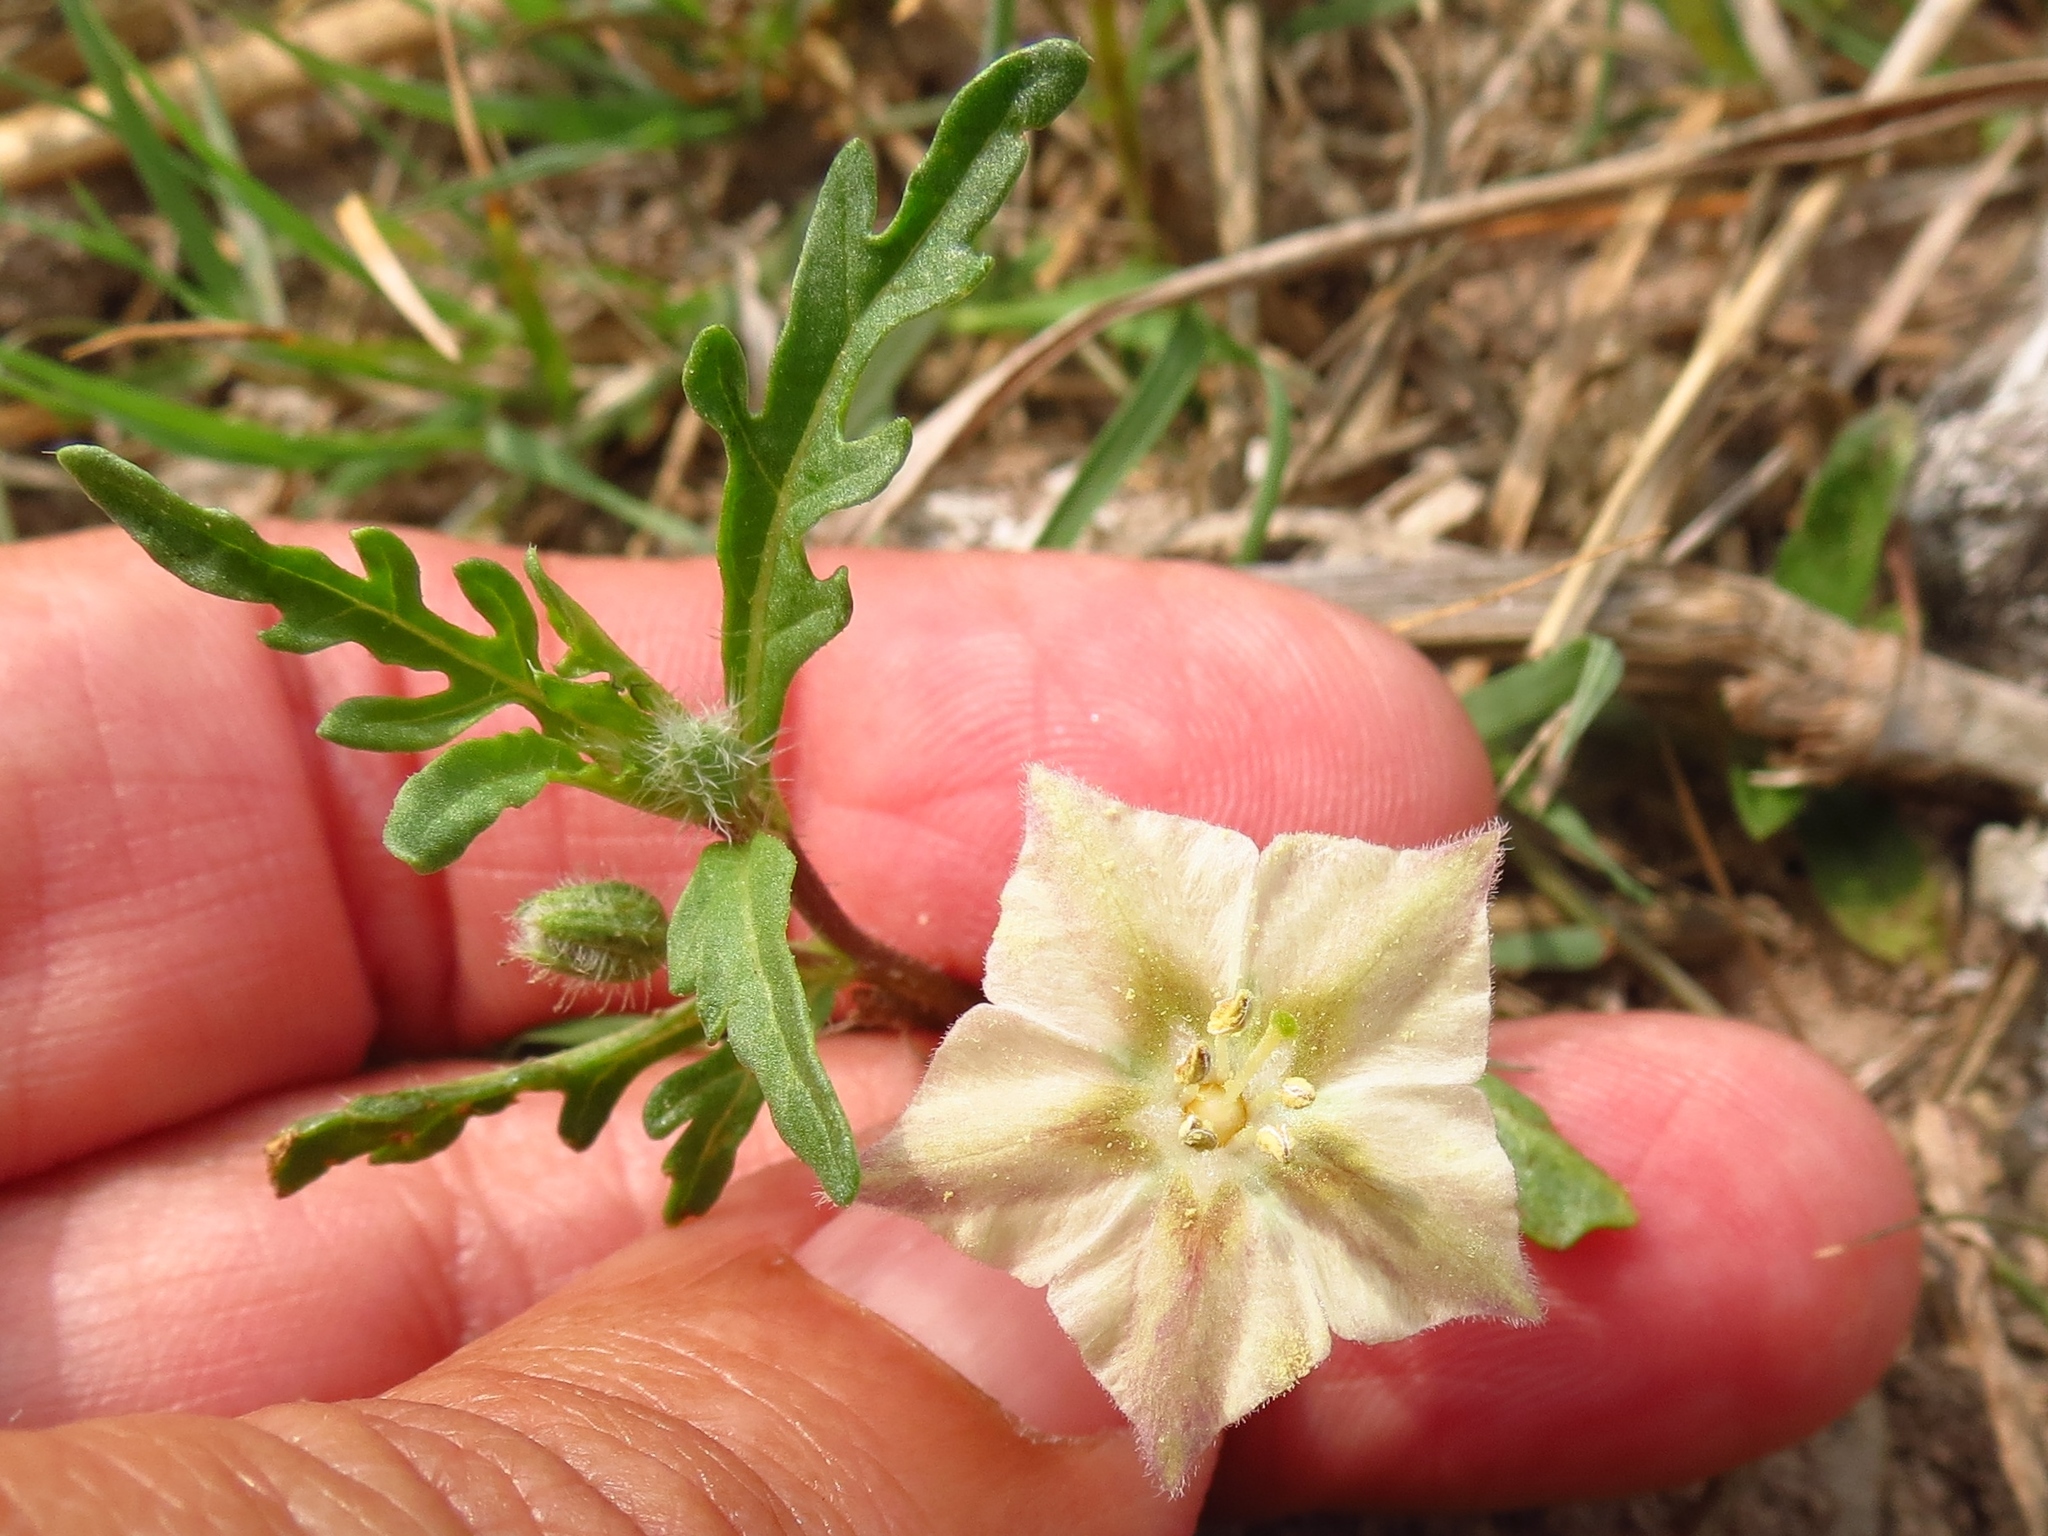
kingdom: Plantae
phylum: Tracheophyta
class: Magnoliopsida
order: Solanales
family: Solanaceae
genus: Chamaesaracha
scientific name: Chamaesaracha coronopus
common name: Smooth chamaesaracha
